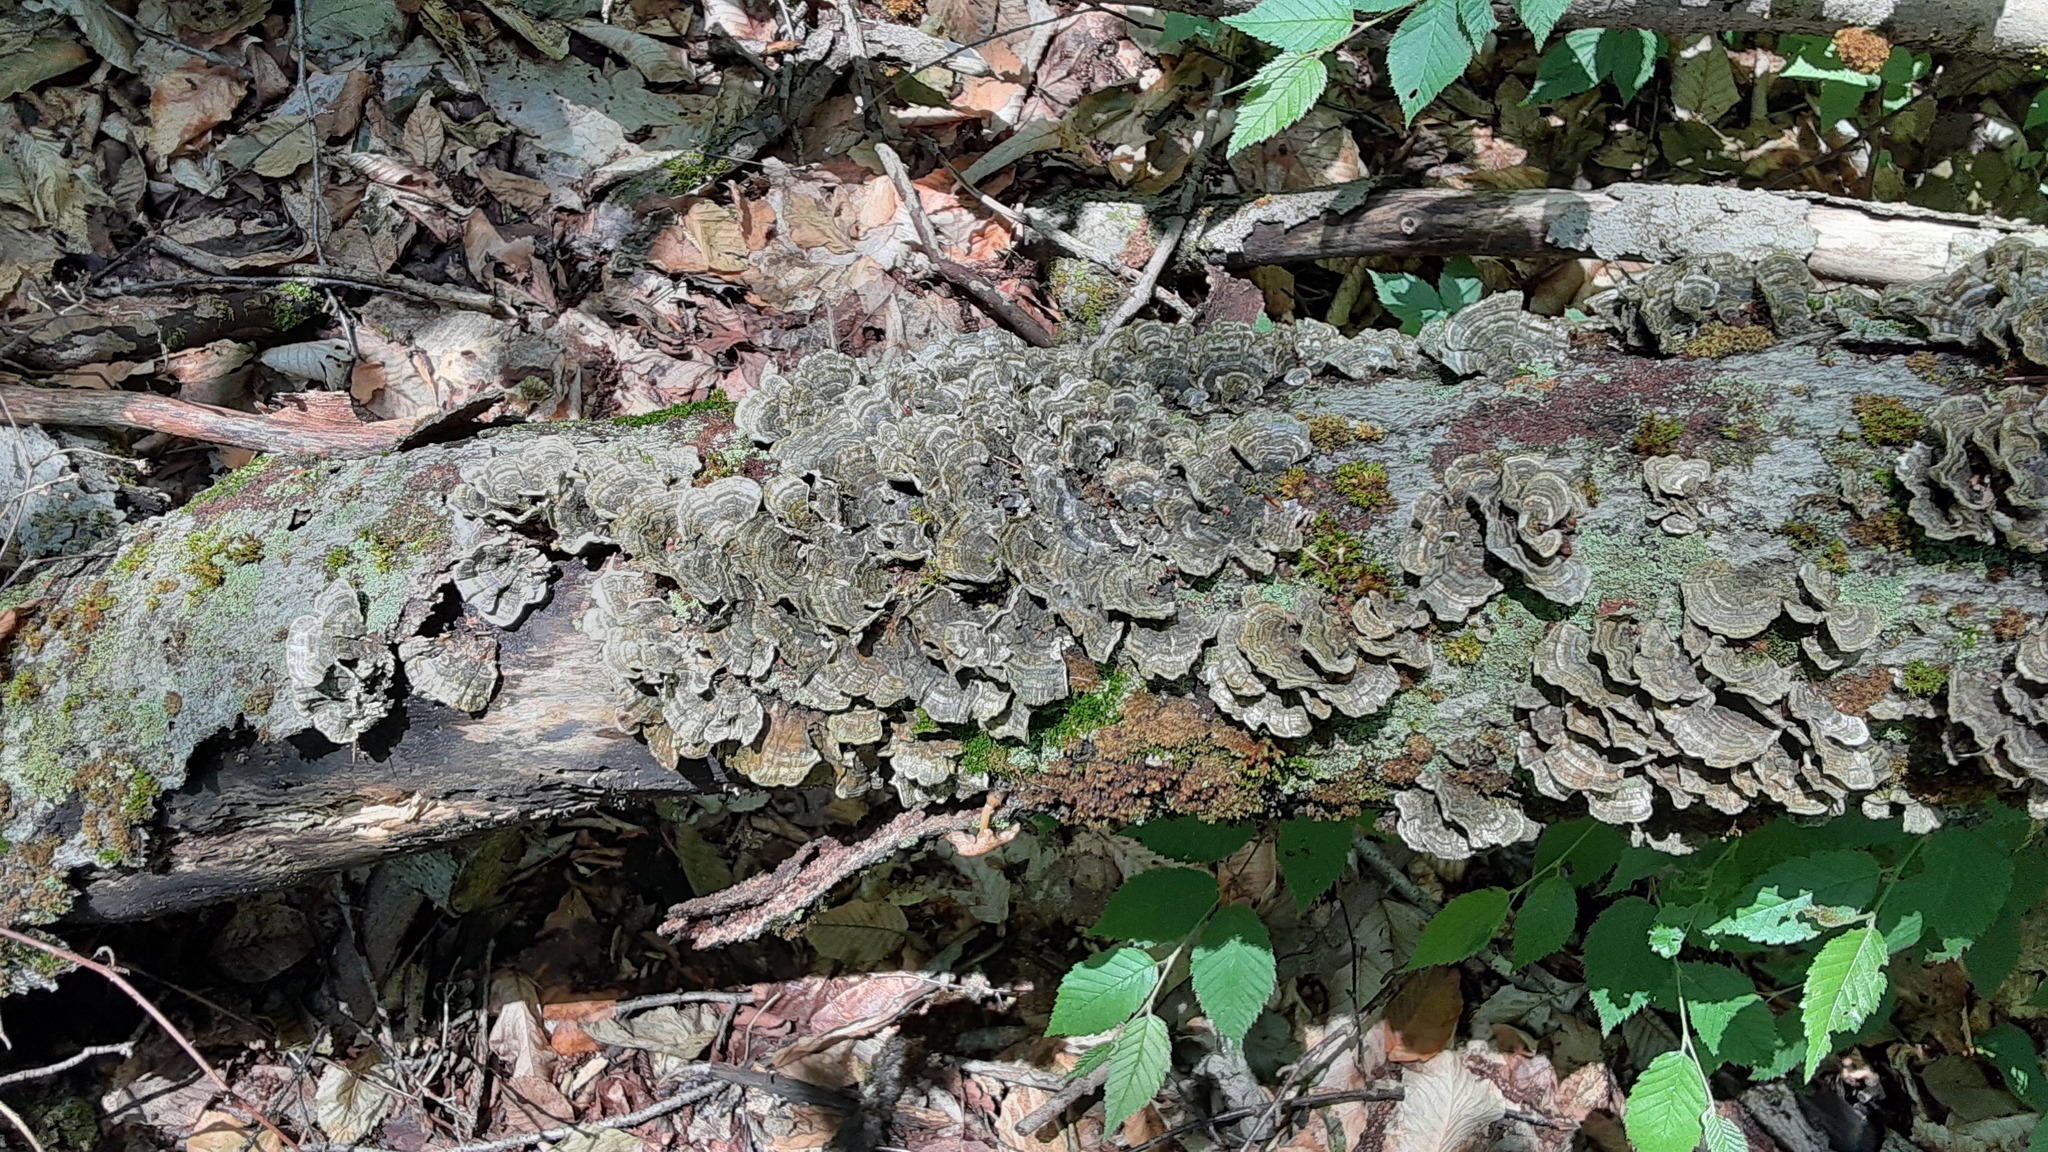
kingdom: Fungi
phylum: Basidiomycota
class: Agaricomycetes
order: Polyporales
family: Polyporaceae
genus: Trametes
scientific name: Trametes versicolor
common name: Turkeytail
